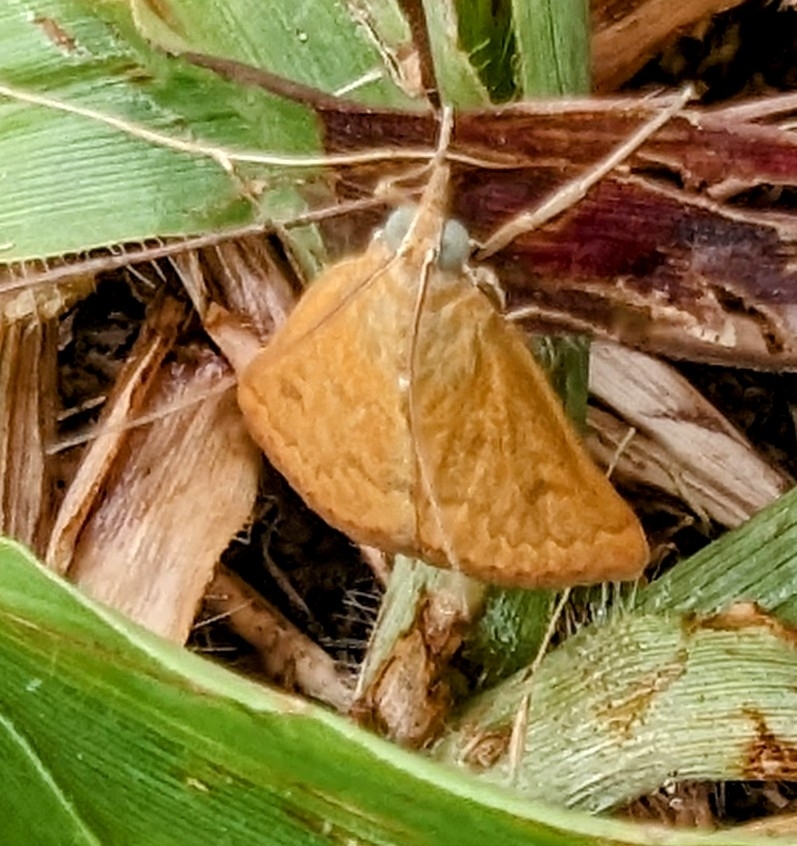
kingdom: Animalia
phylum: Arthropoda
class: Insecta
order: Lepidoptera
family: Crambidae
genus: Achyra
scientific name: Achyra rantalis
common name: Garden webworm
